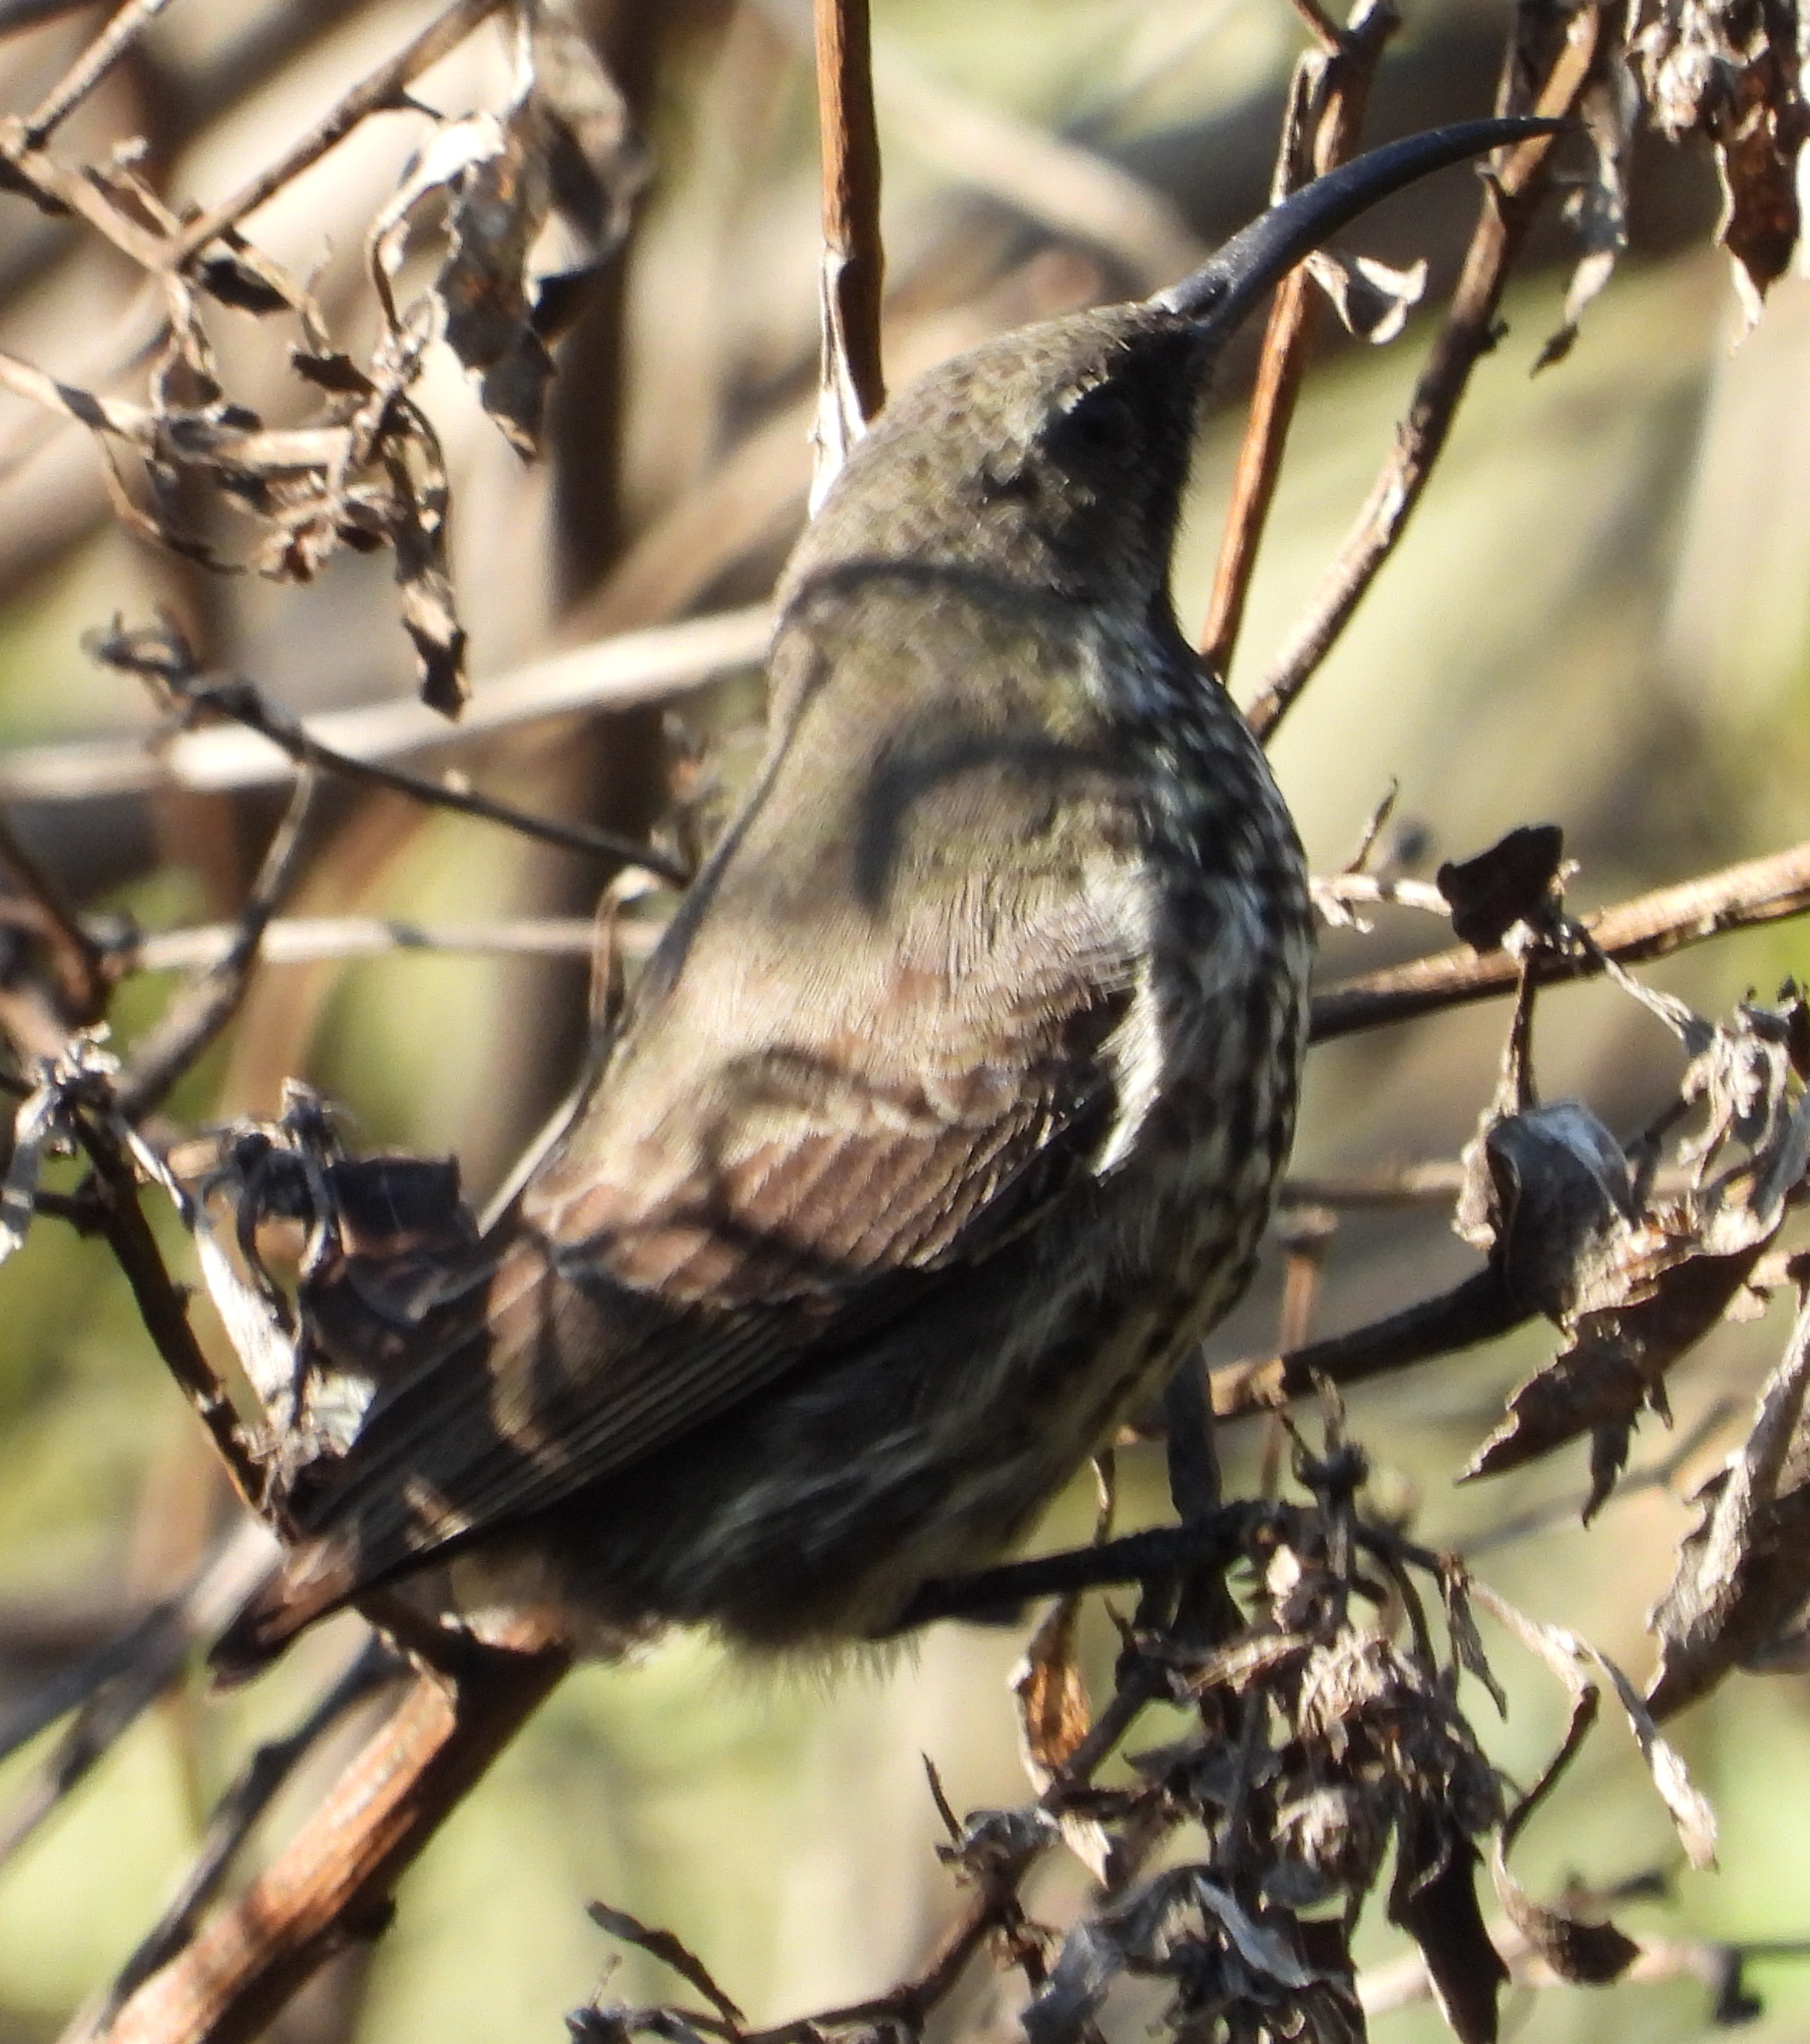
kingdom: Animalia
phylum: Chordata
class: Aves
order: Passeriformes
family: Nectariniidae
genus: Chalcomitra
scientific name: Chalcomitra amethystina
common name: Amethyst sunbird
